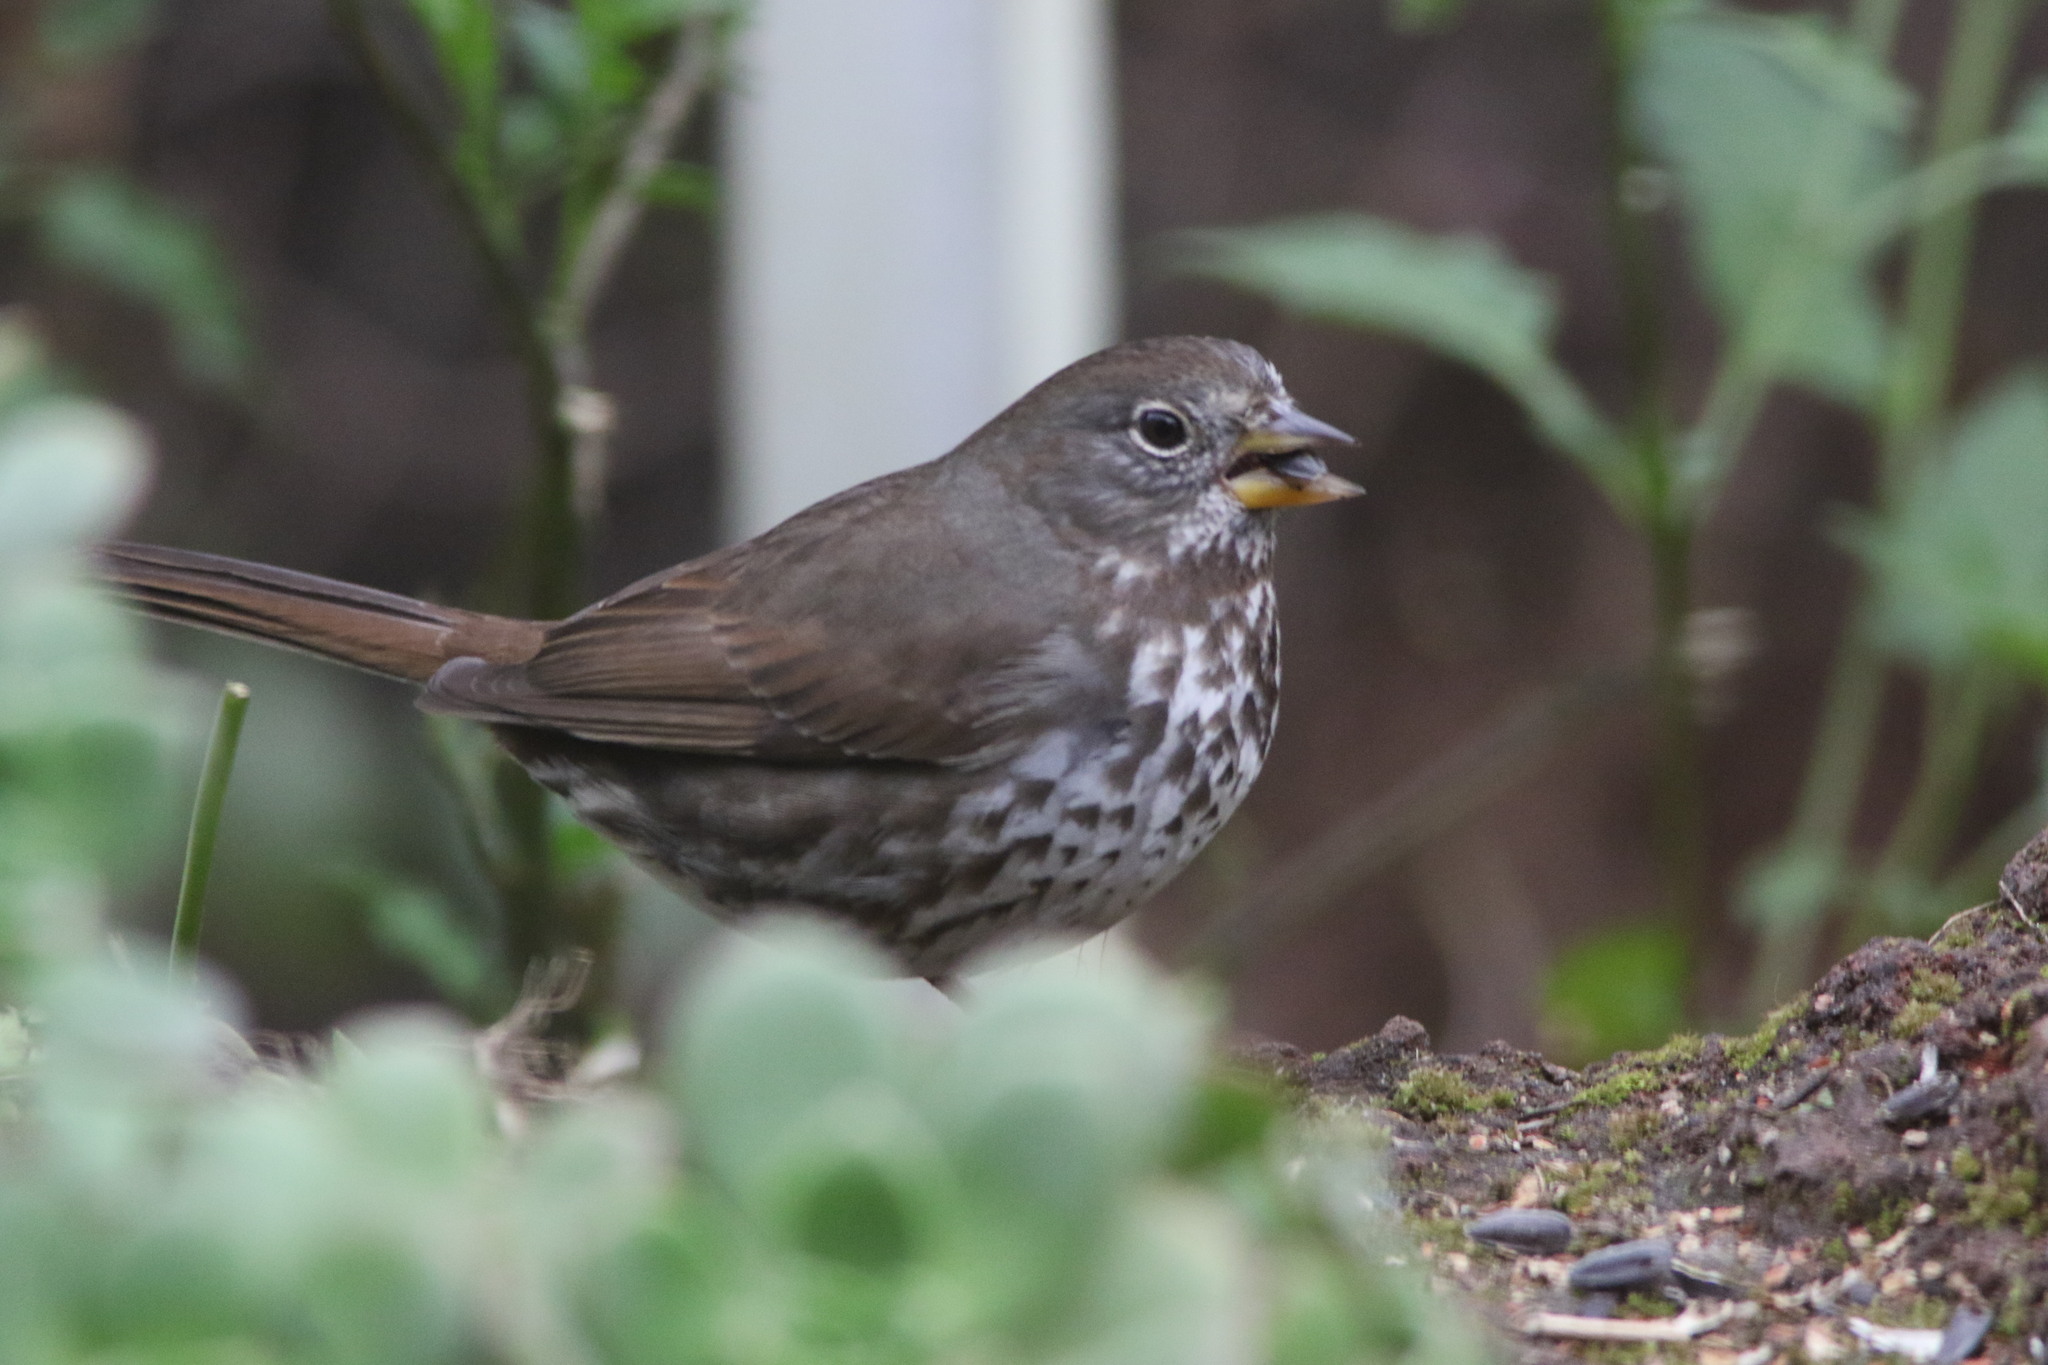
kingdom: Animalia
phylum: Chordata
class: Aves
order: Passeriformes
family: Passerellidae
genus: Passerella
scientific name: Passerella iliaca
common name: Fox sparrow
